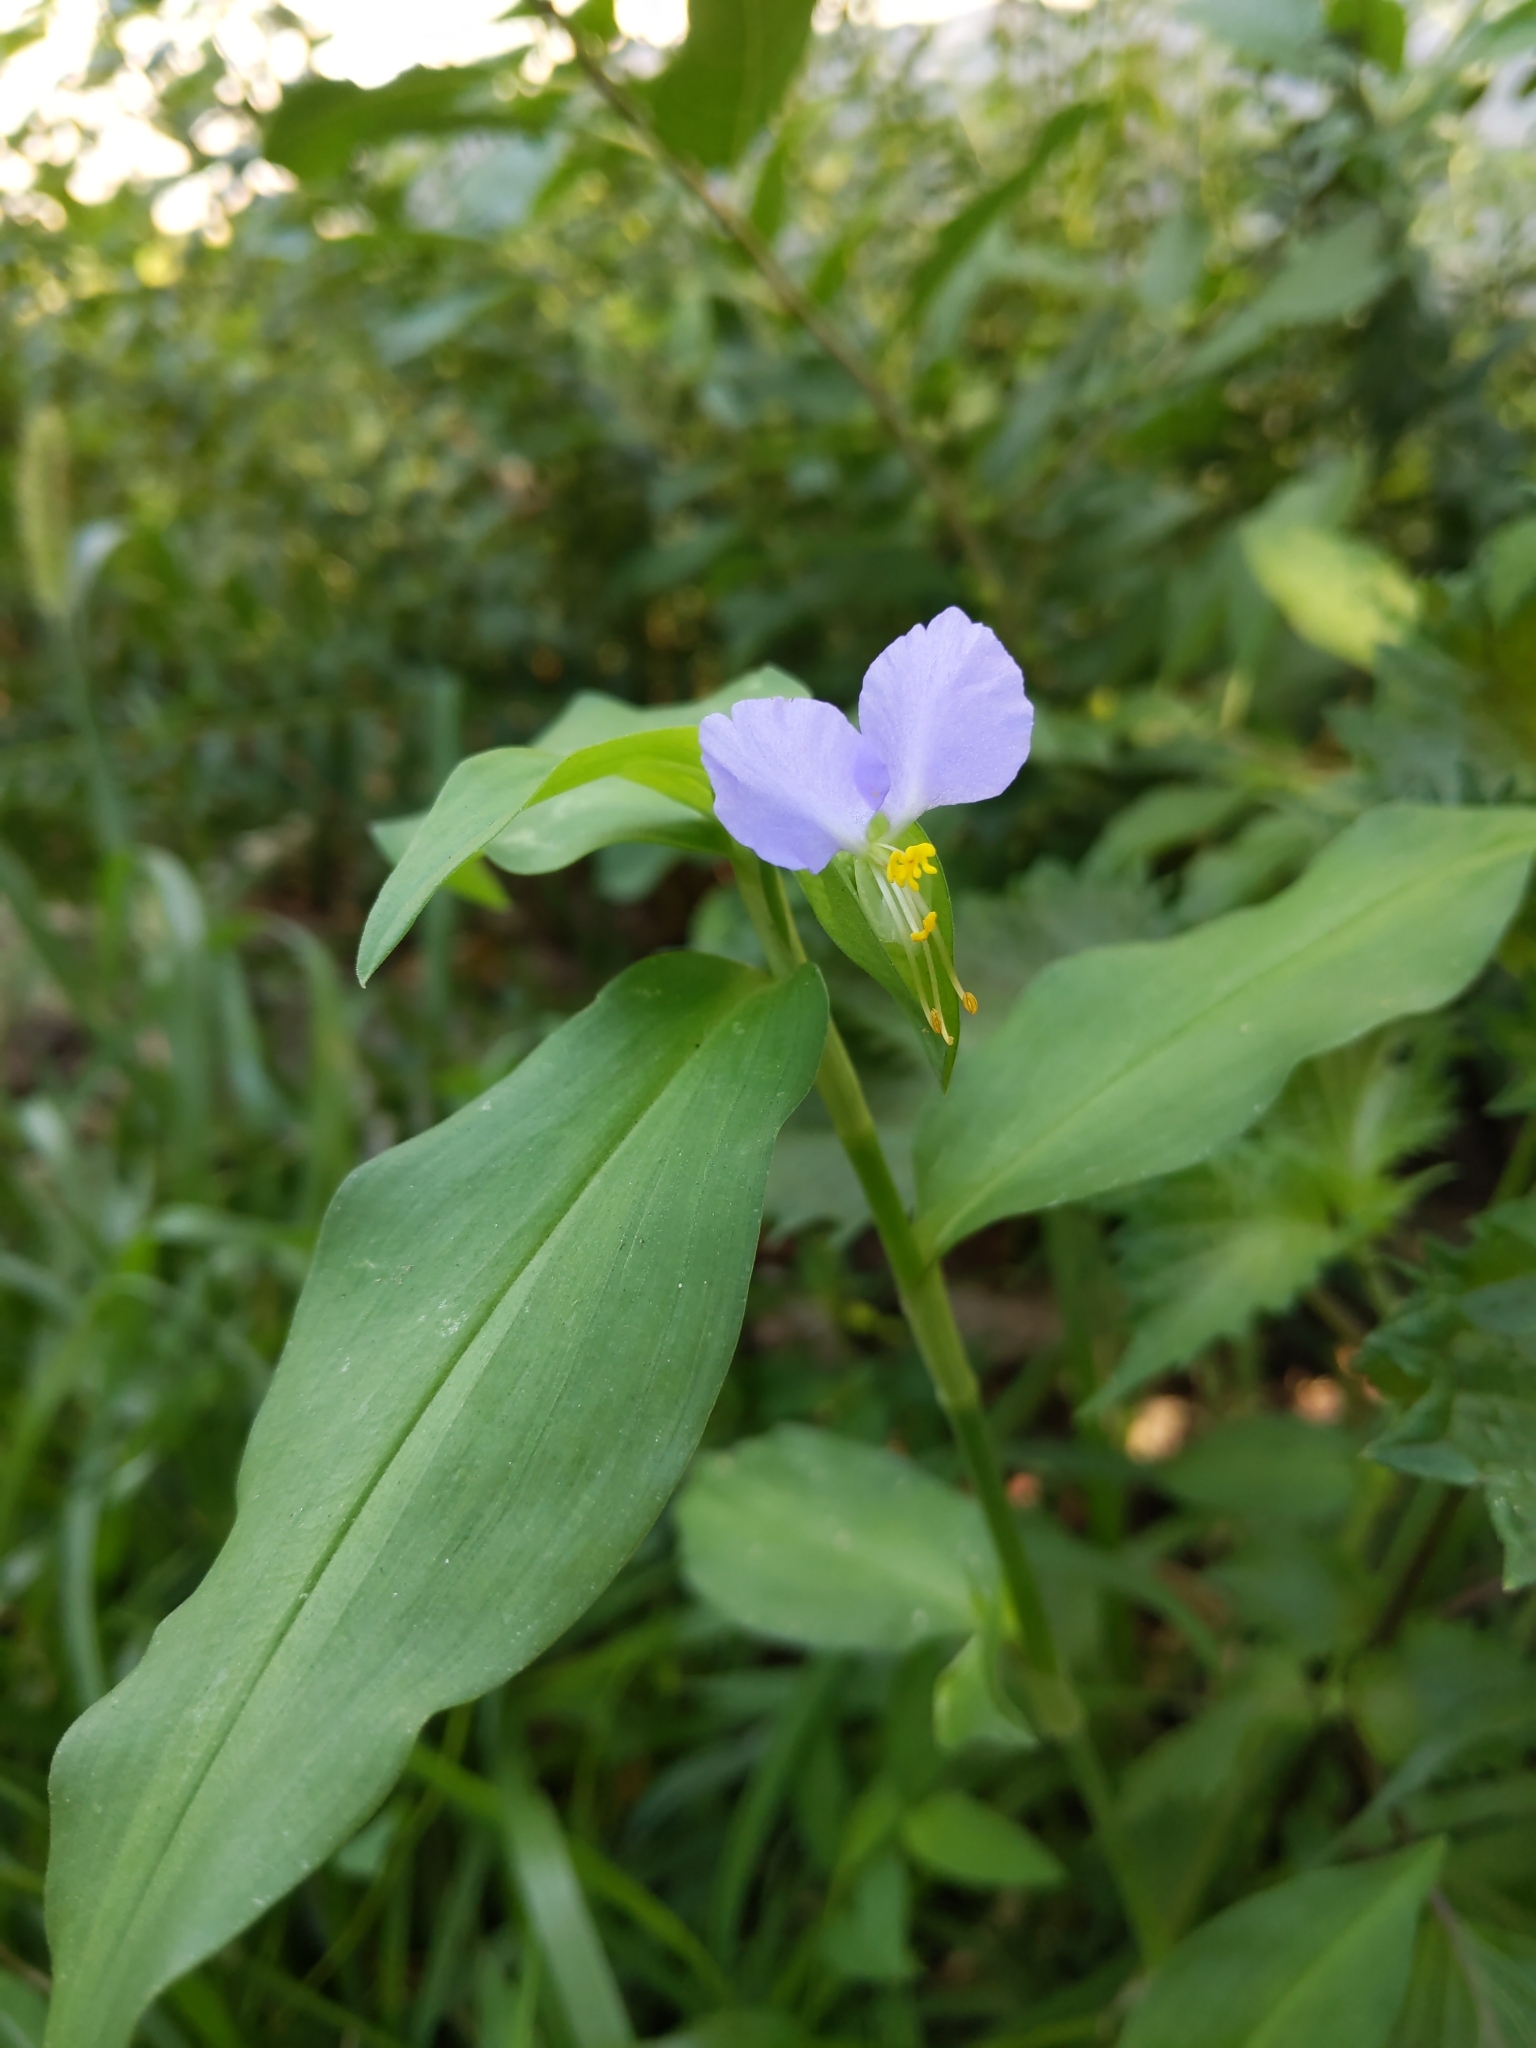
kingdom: Plantae
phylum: Tracheophyta
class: Liliopsida
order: Commelinales
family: Commelinaceae
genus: Commelina
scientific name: Commelina communis
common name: Asiatic dayflower
